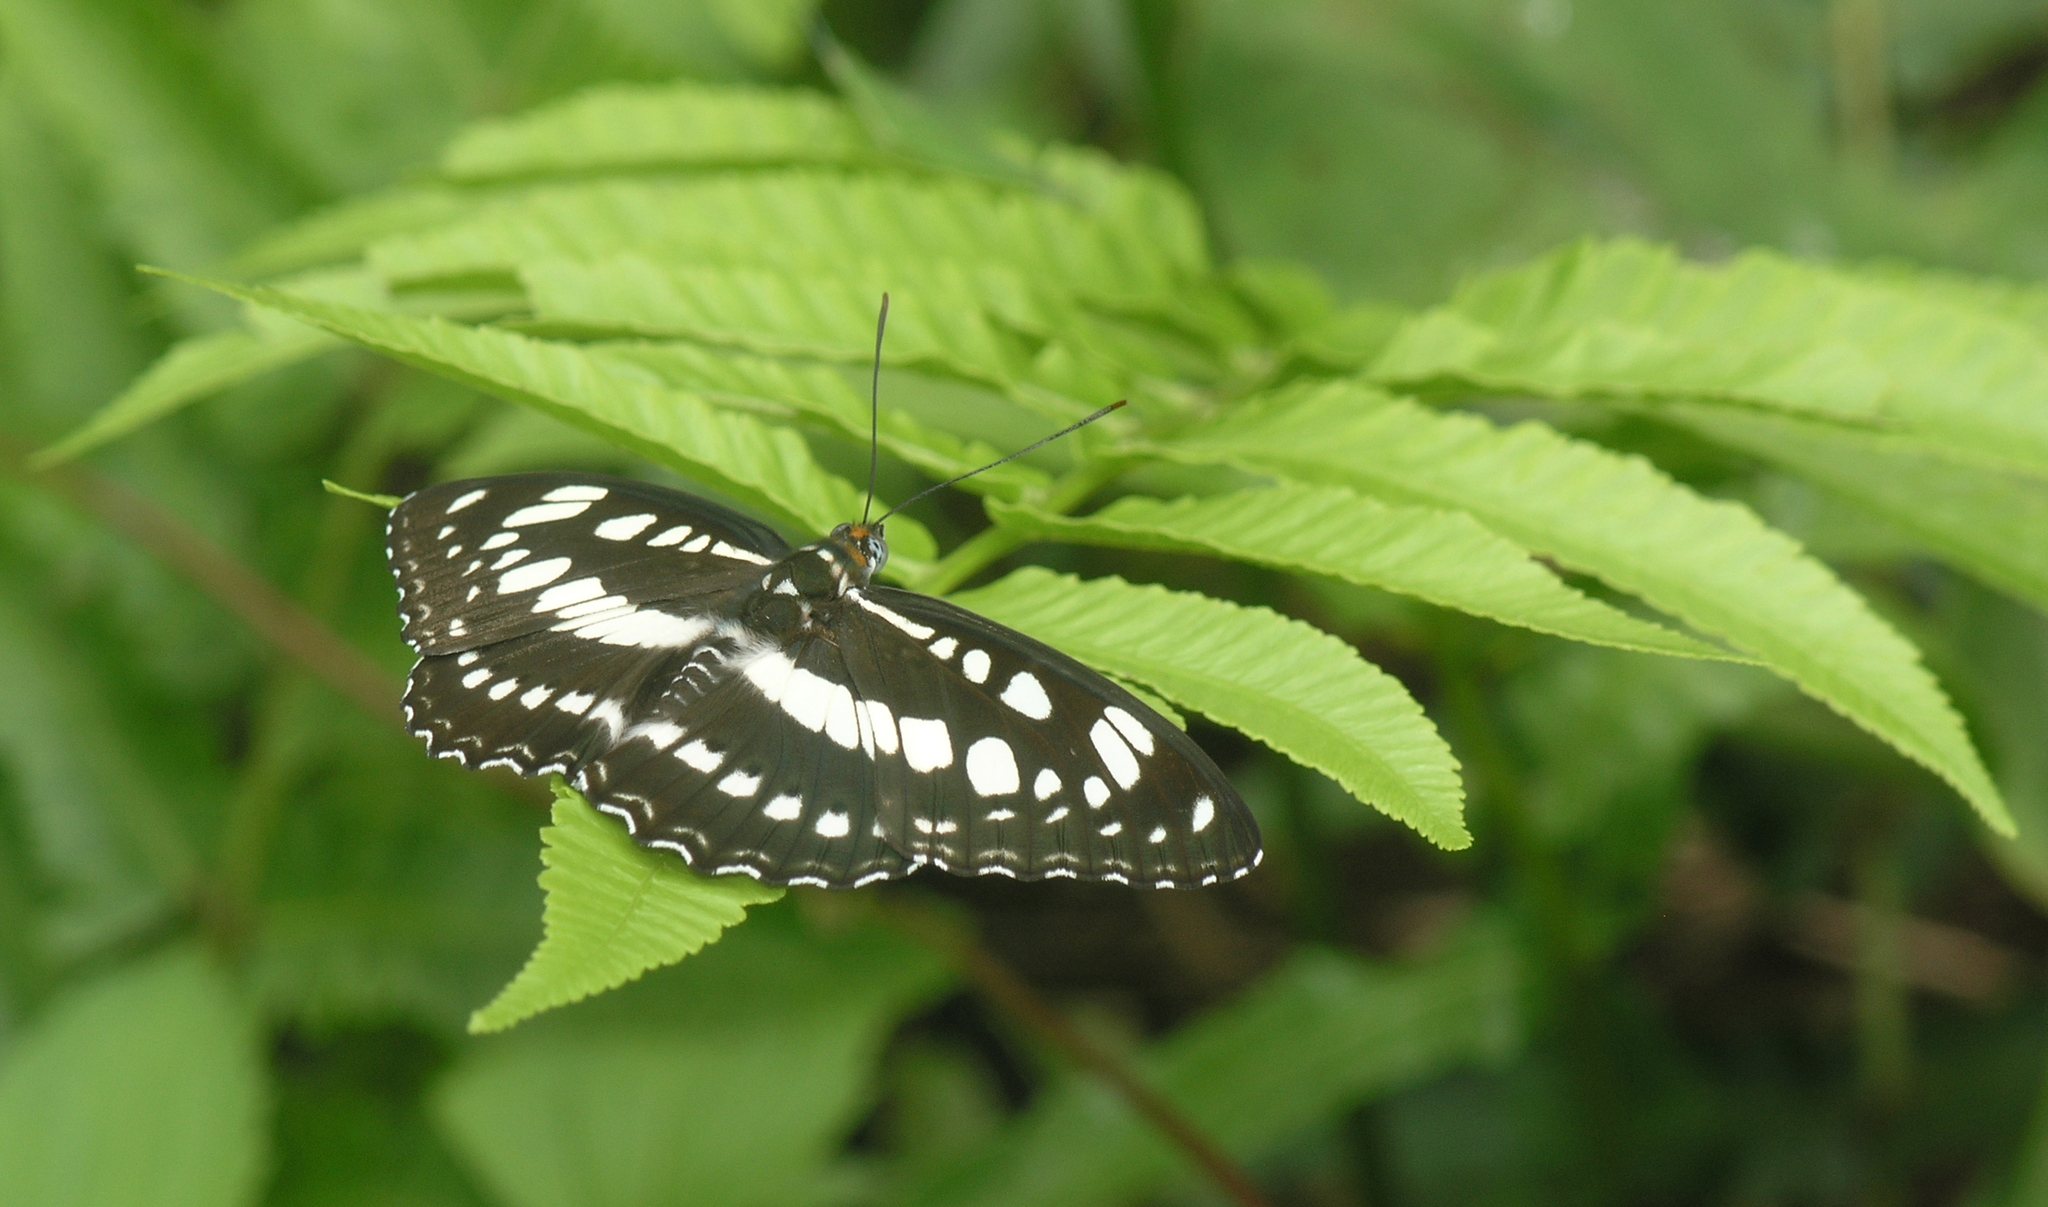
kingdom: Animalia
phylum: Arthropoda
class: Insecta
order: Lepidoptera
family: Nymphalidae
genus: Parathyma
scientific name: Parathyma perius
